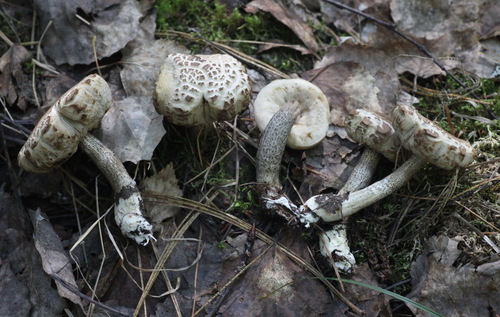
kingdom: Fungi
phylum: Basidiomycota
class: Agaricomycetes
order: Boletales
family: Boletaceae
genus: Leccinum
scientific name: Leccinum scabrum
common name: Blushing bolete
